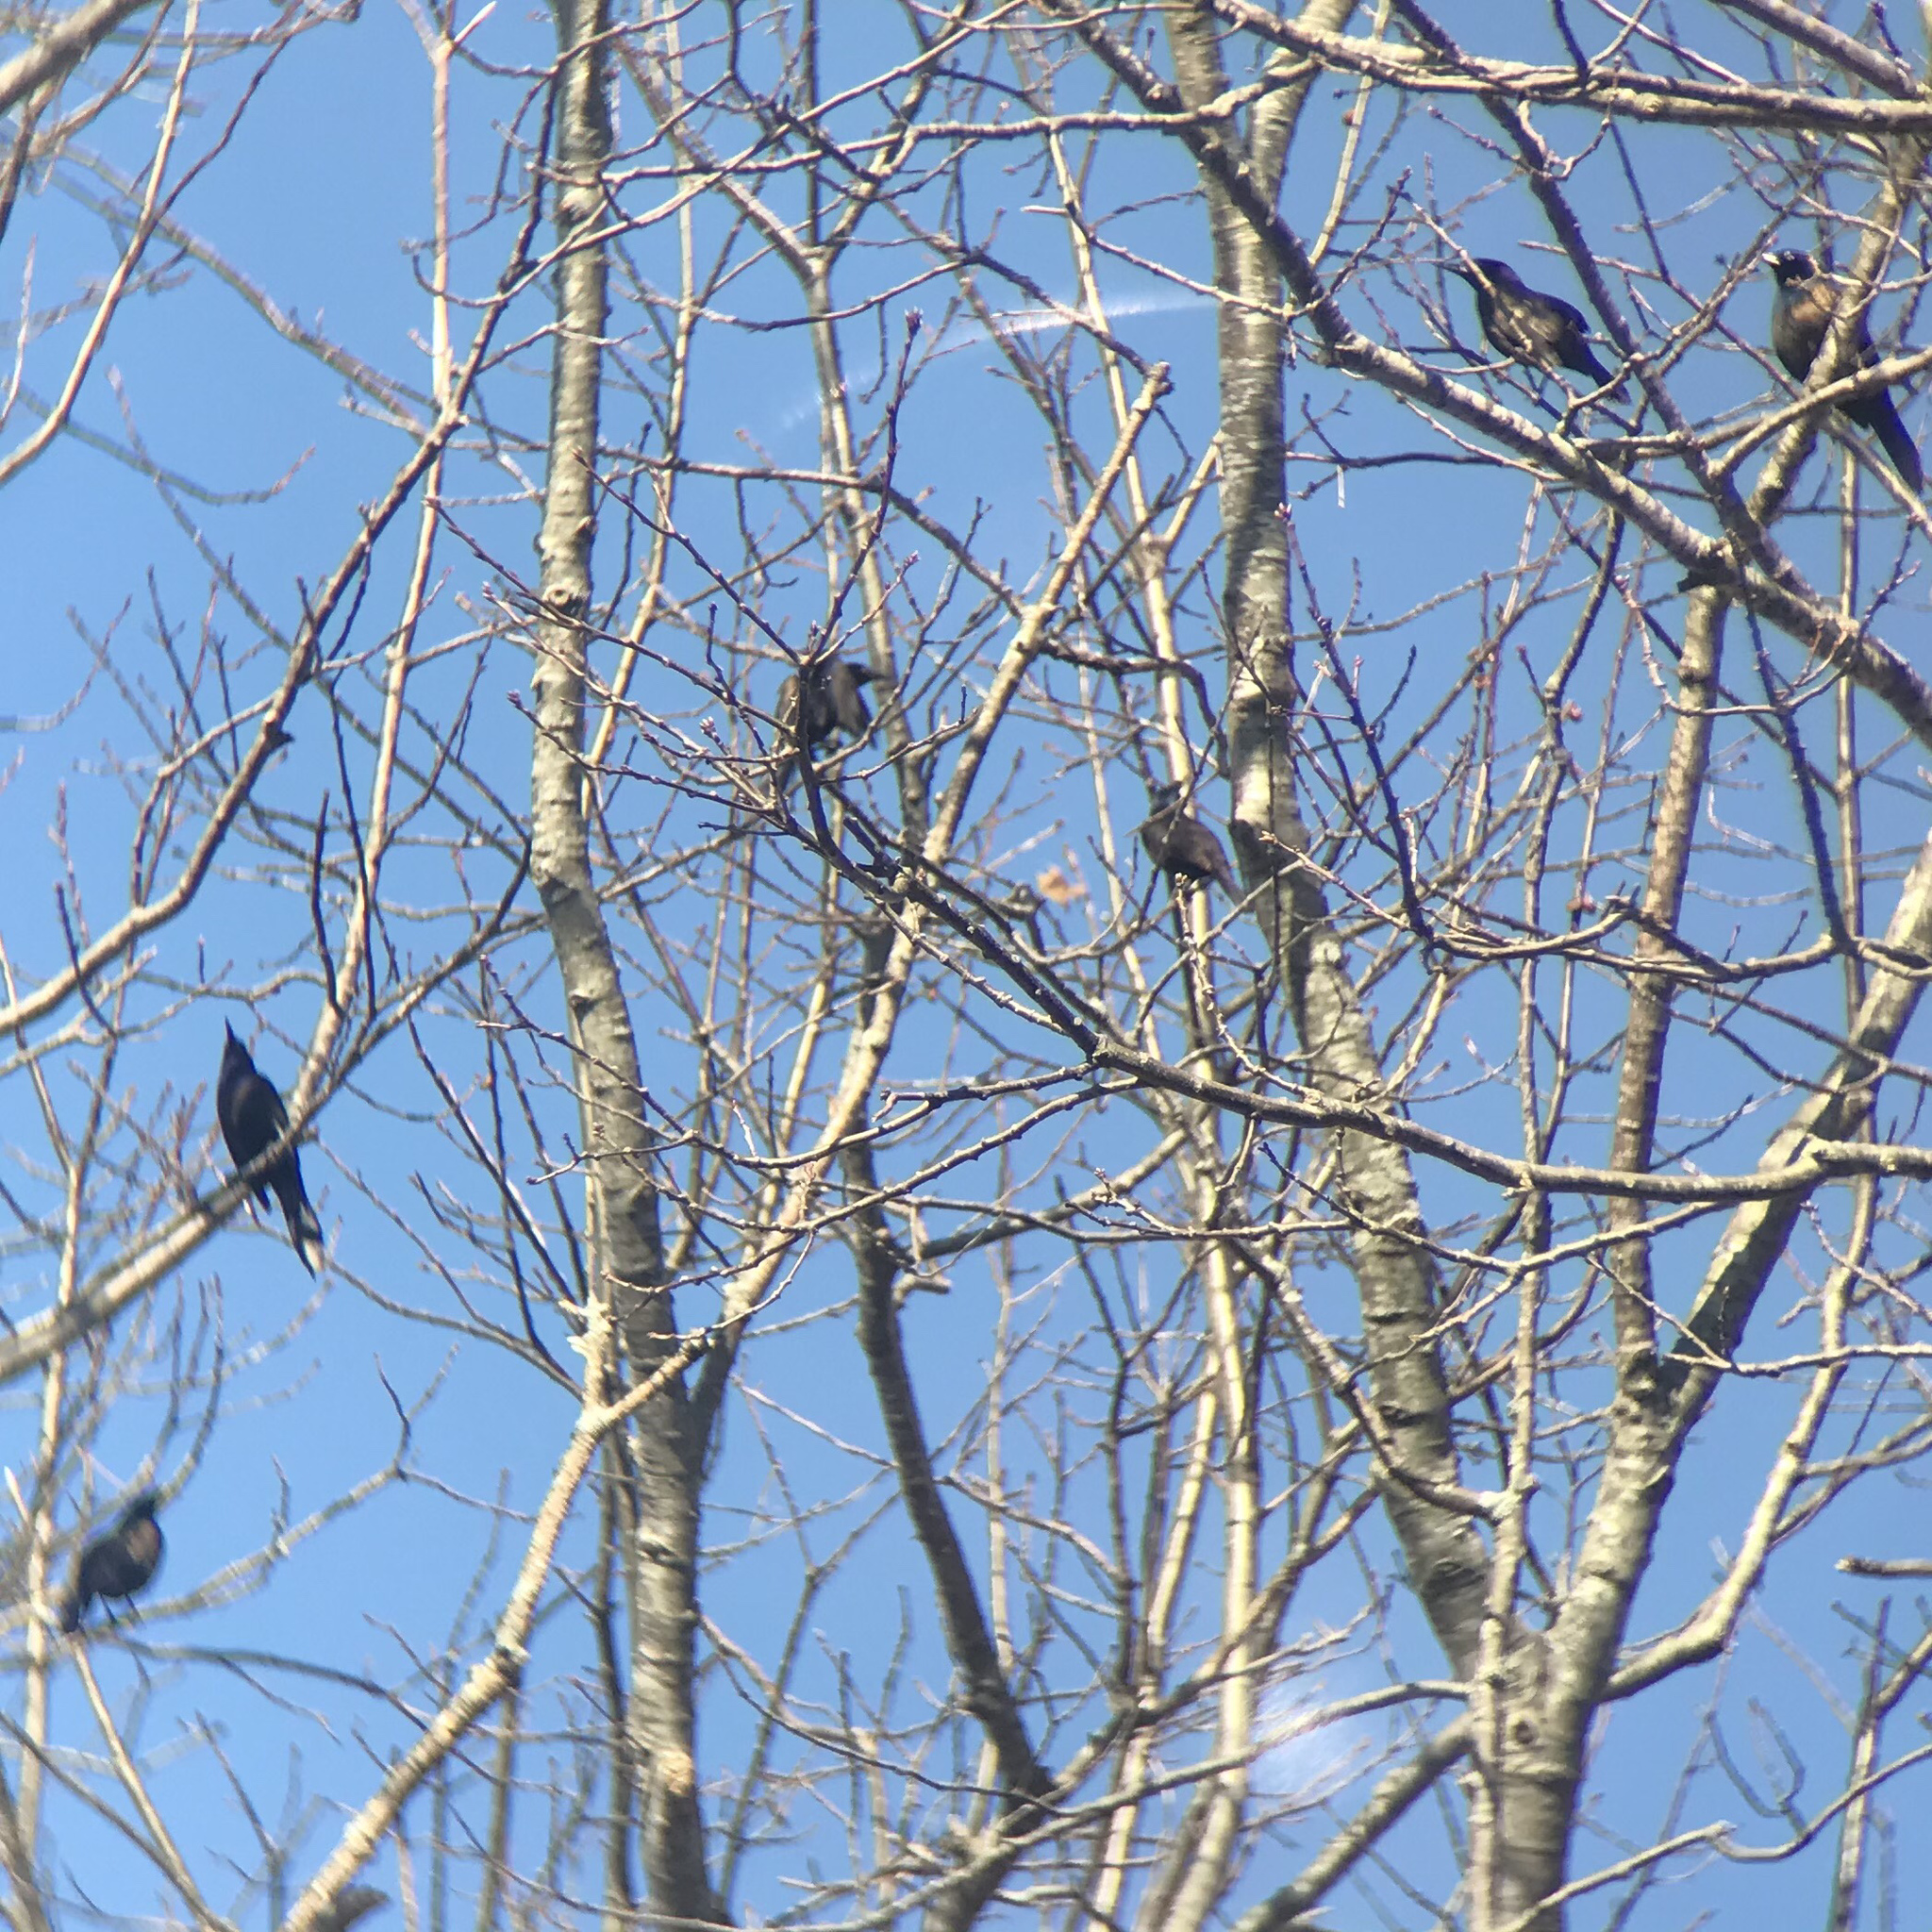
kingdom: Animalia
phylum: Chordata
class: Aves
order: Passeriformes
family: Icteridae
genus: Quiscalus
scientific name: Quiscalus quiscula
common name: Common grackle
